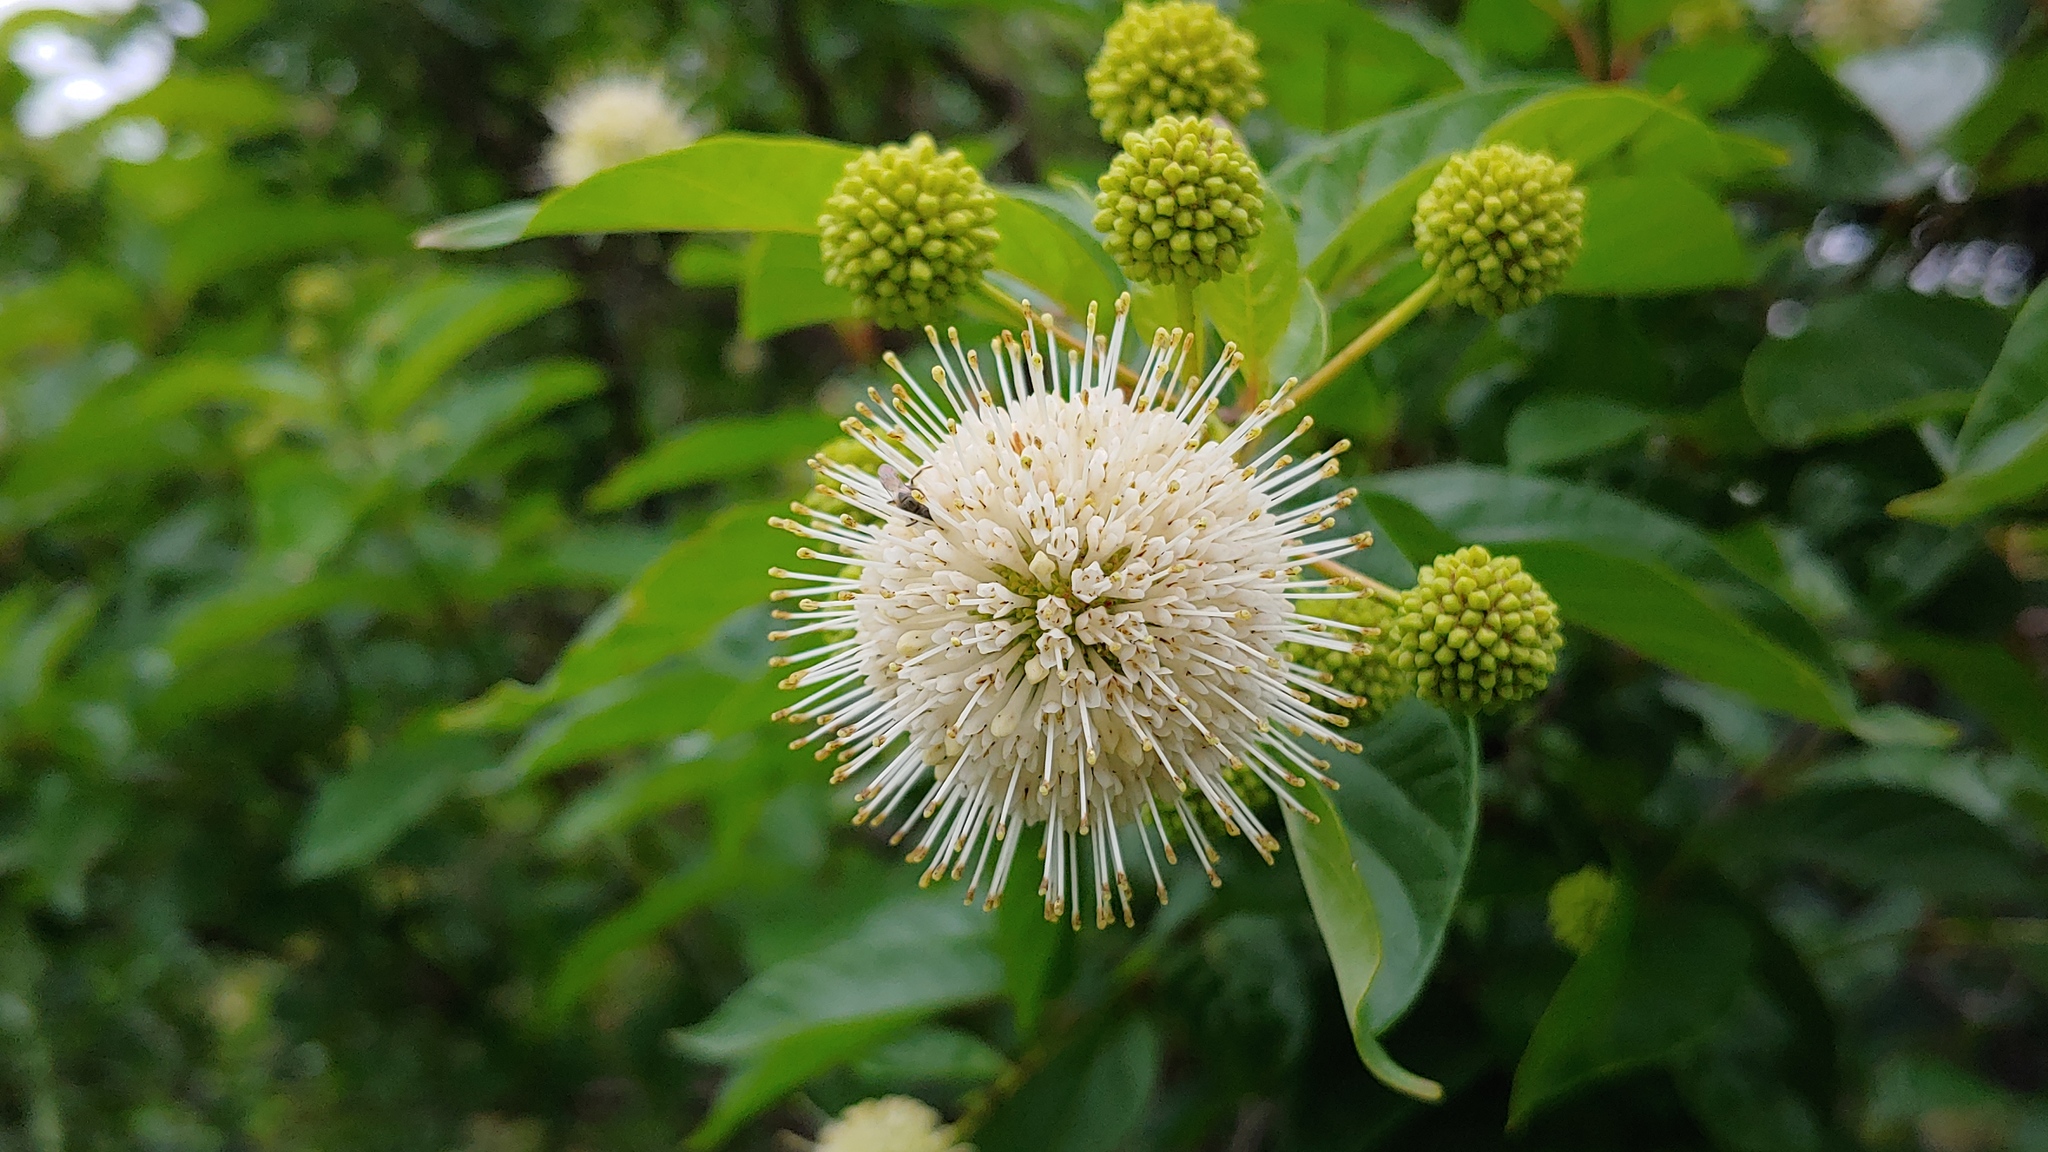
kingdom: Plantae
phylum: Tracheophyta
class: Magnoliopsida
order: Gentianales
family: Rubiaceae
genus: Cephalanthus
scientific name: Cephalanthus occidentalis
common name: Button-willow
